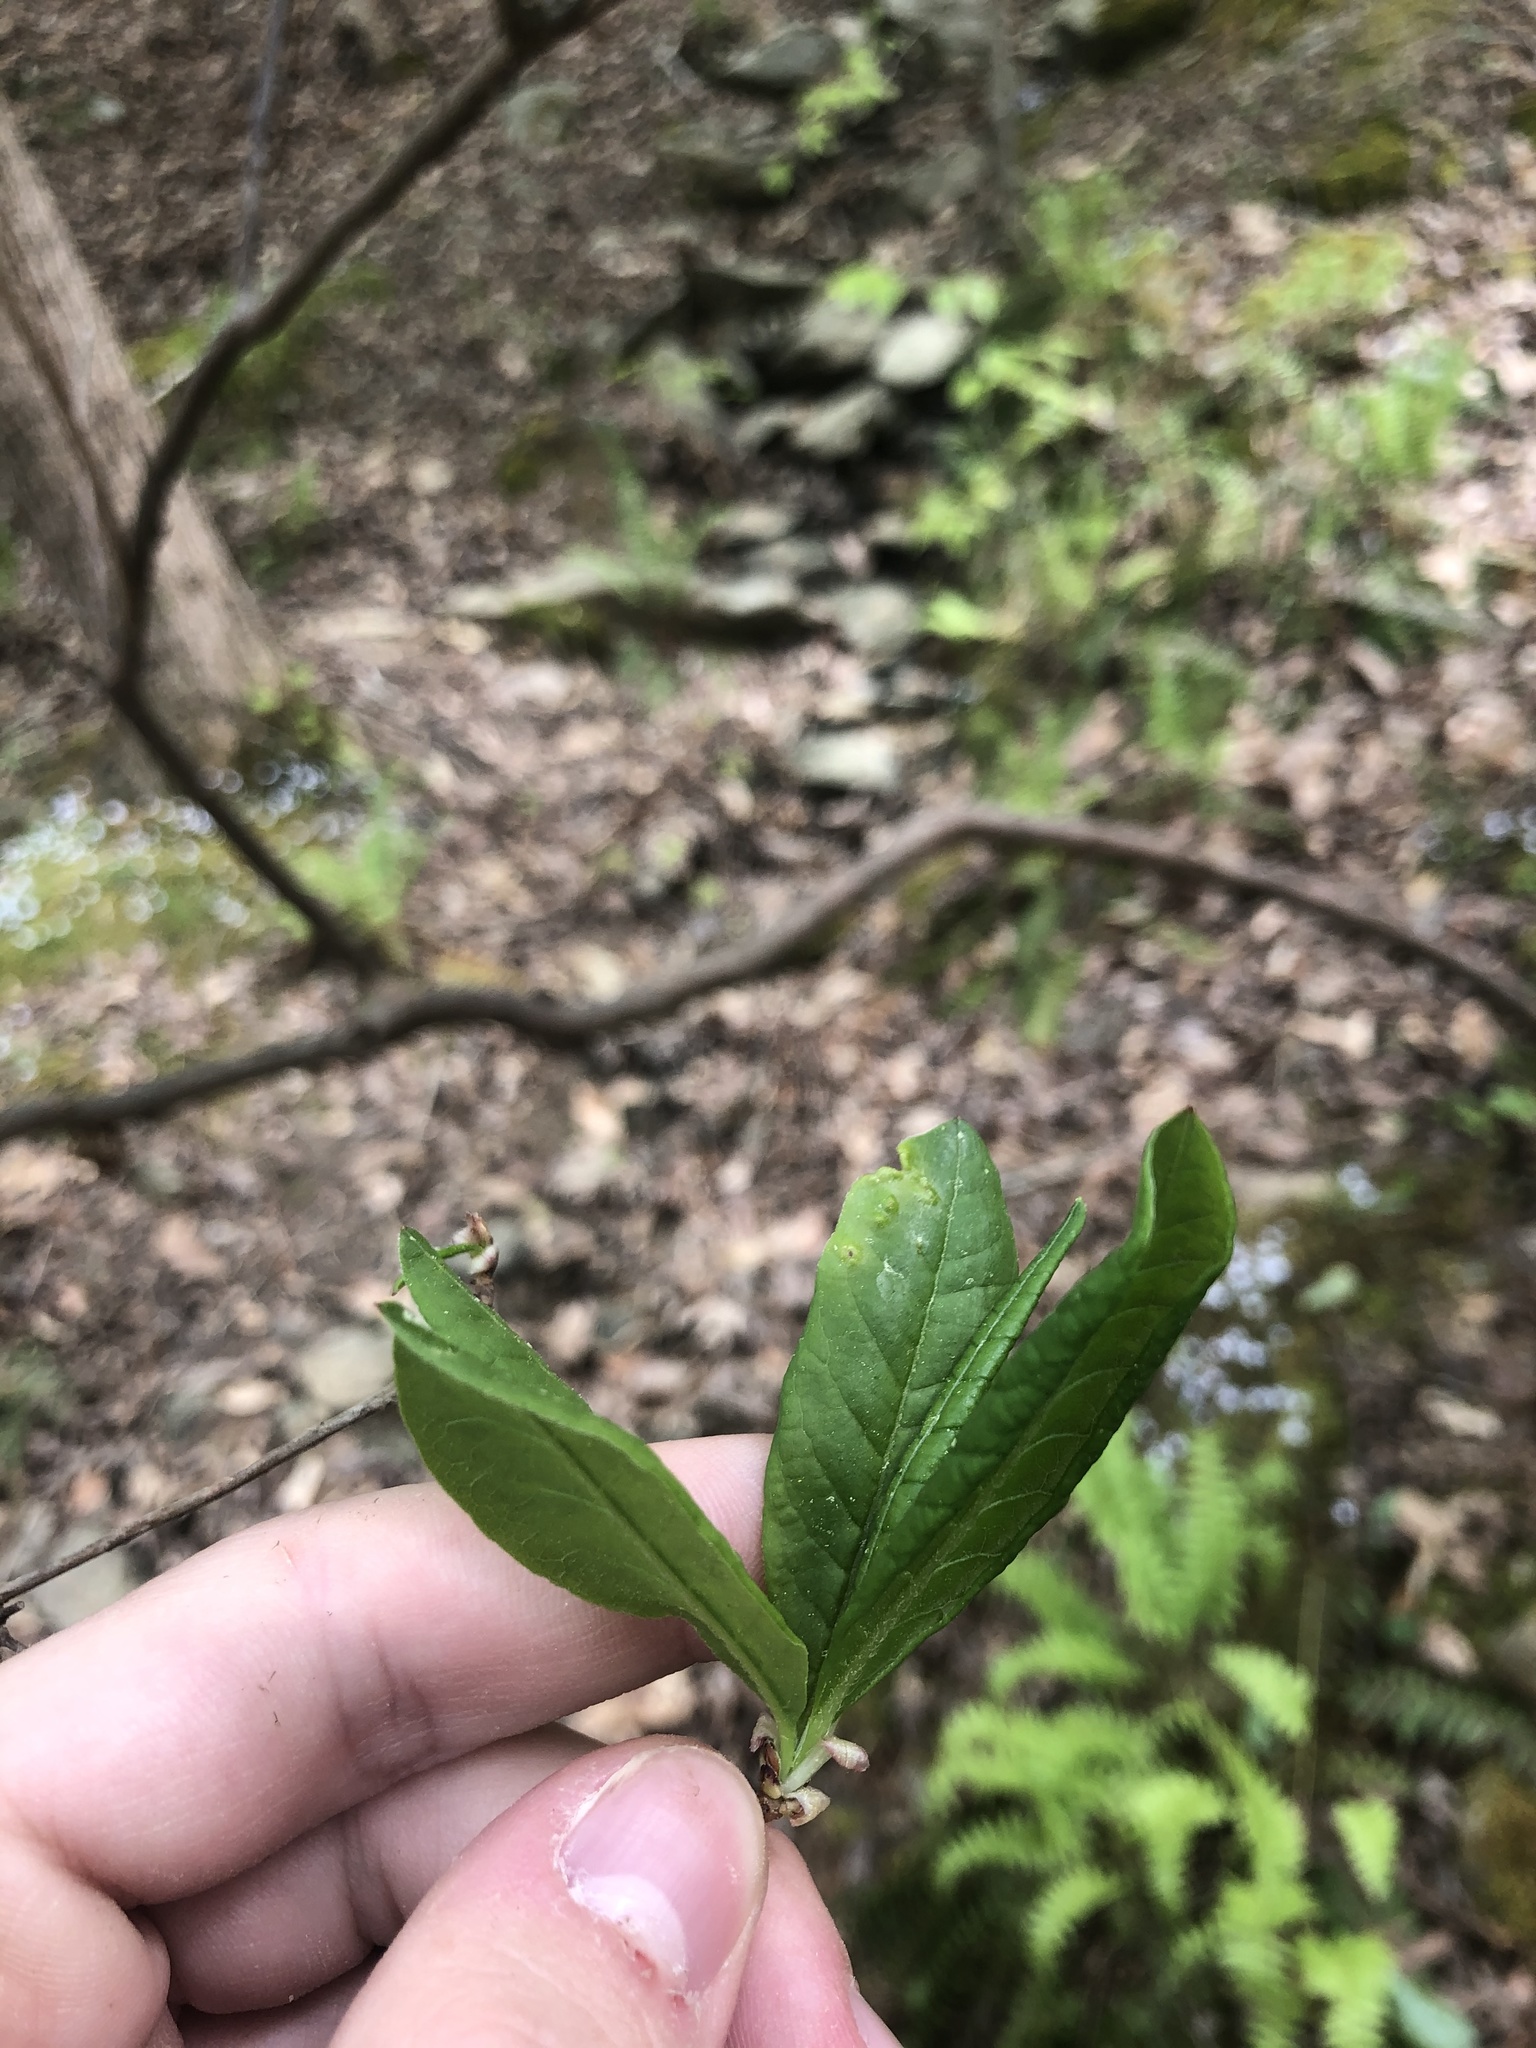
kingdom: Plantae
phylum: Tracheophyta
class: Magnoliopsida
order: Ericales
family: Ericaceae
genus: Rhododendron
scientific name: Rhododendron periclymenoides
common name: Election-pink
